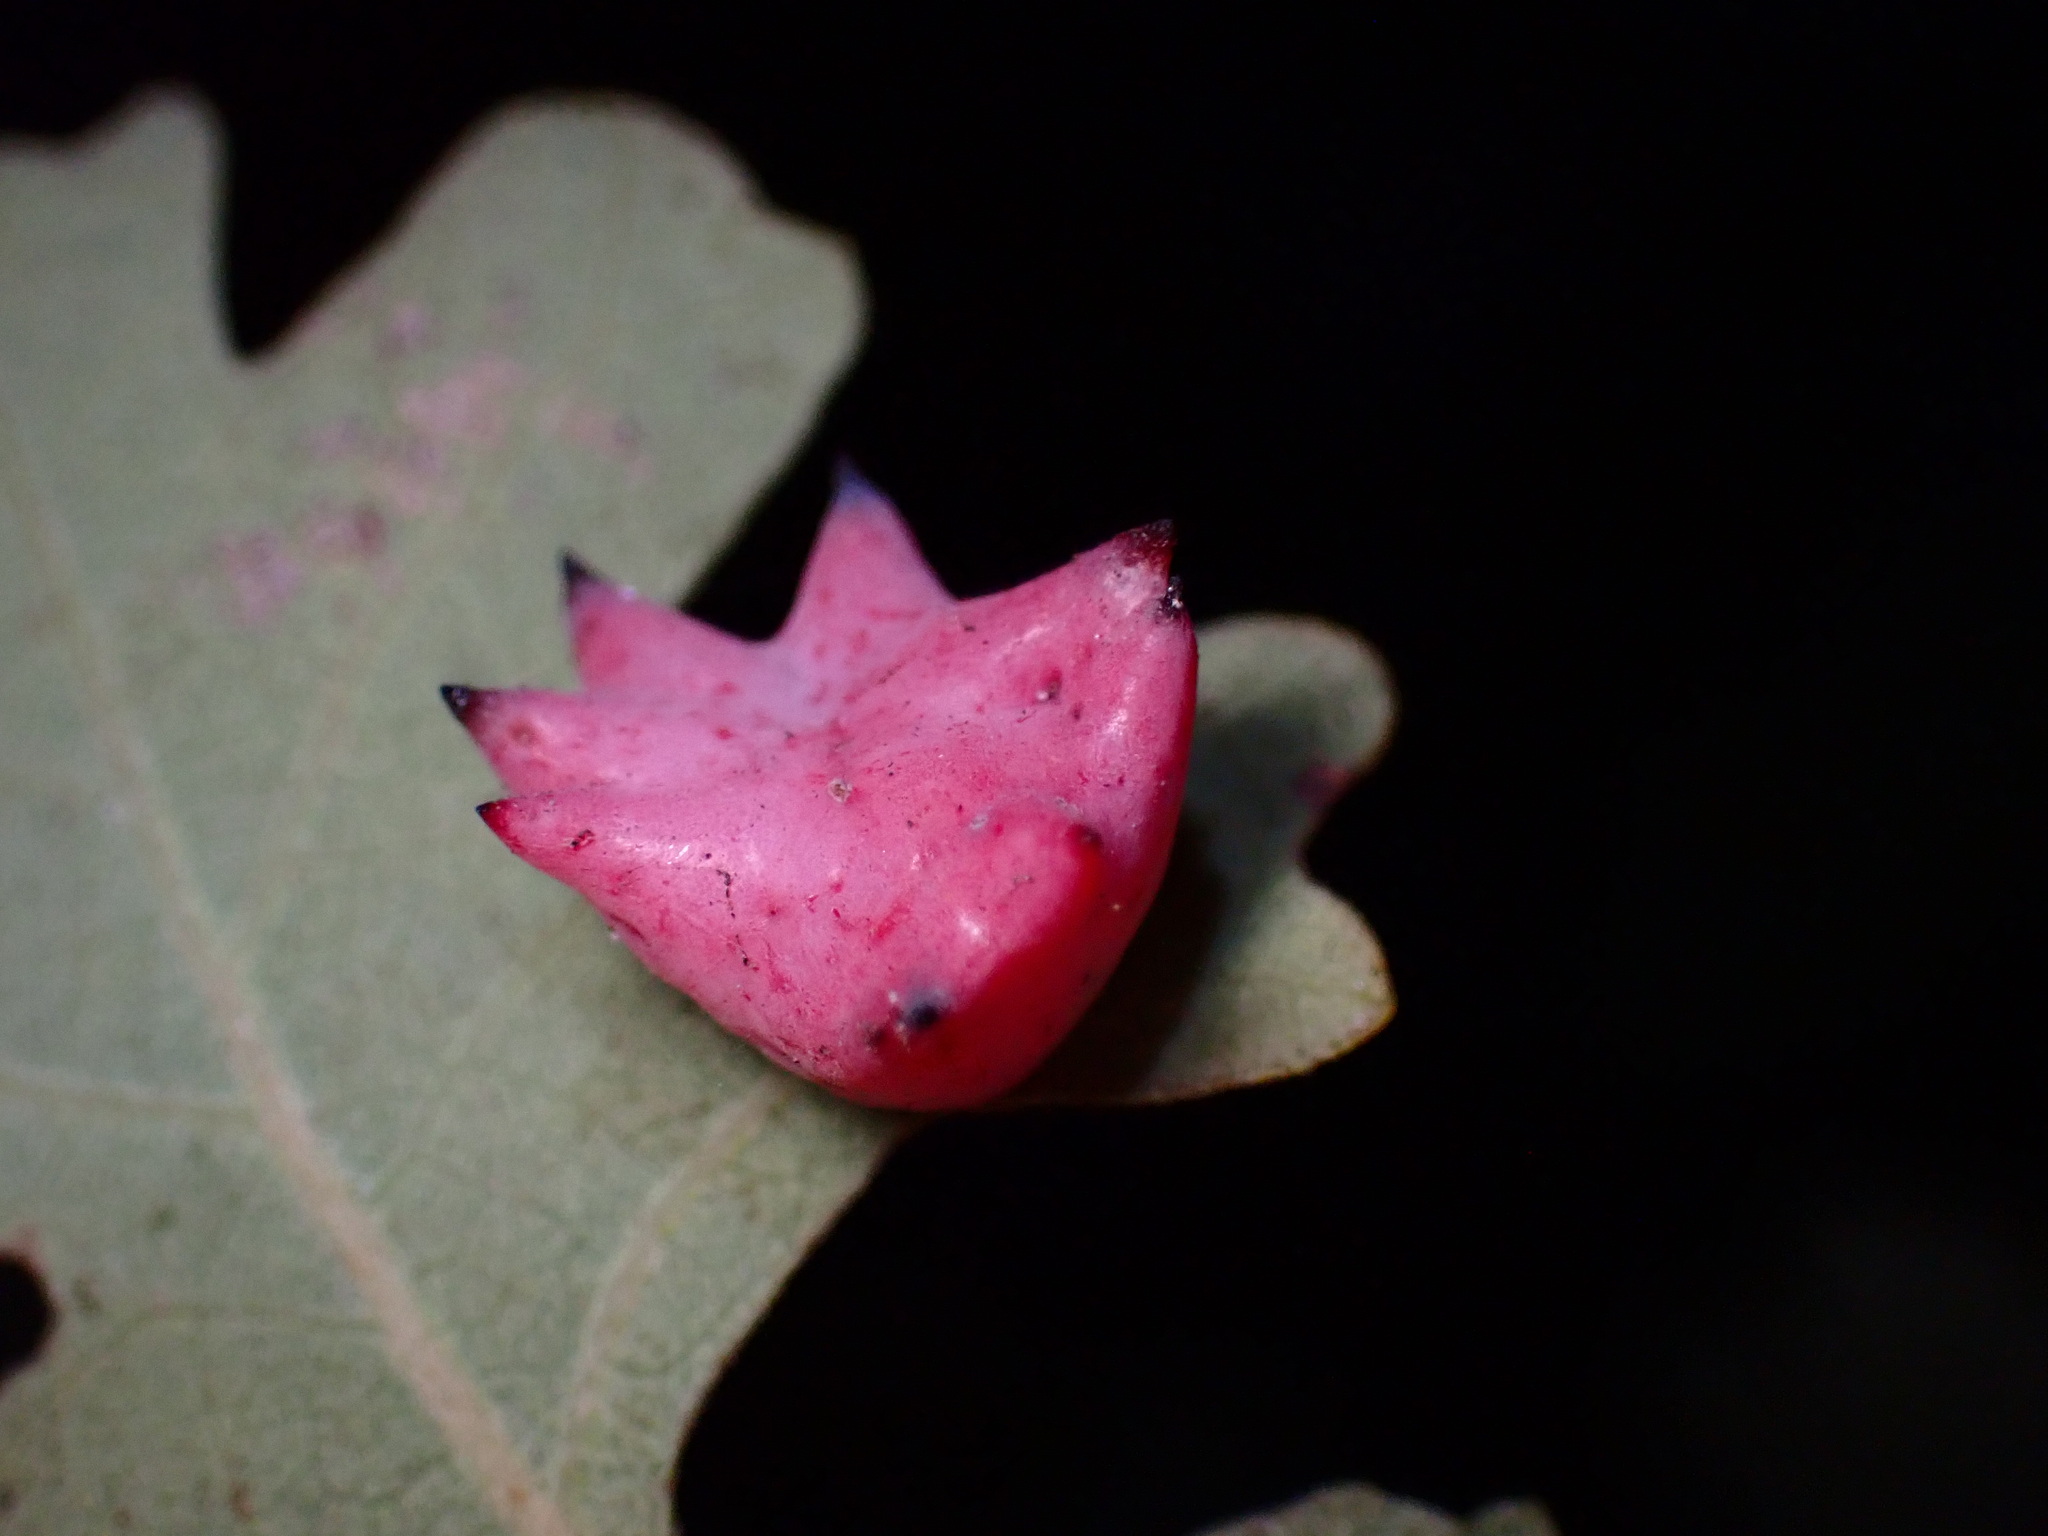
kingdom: Animalia
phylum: Arthropoda
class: Insecta
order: Hymenoptera
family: Cynipidae
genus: Cynips
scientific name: Cynips douglasi
